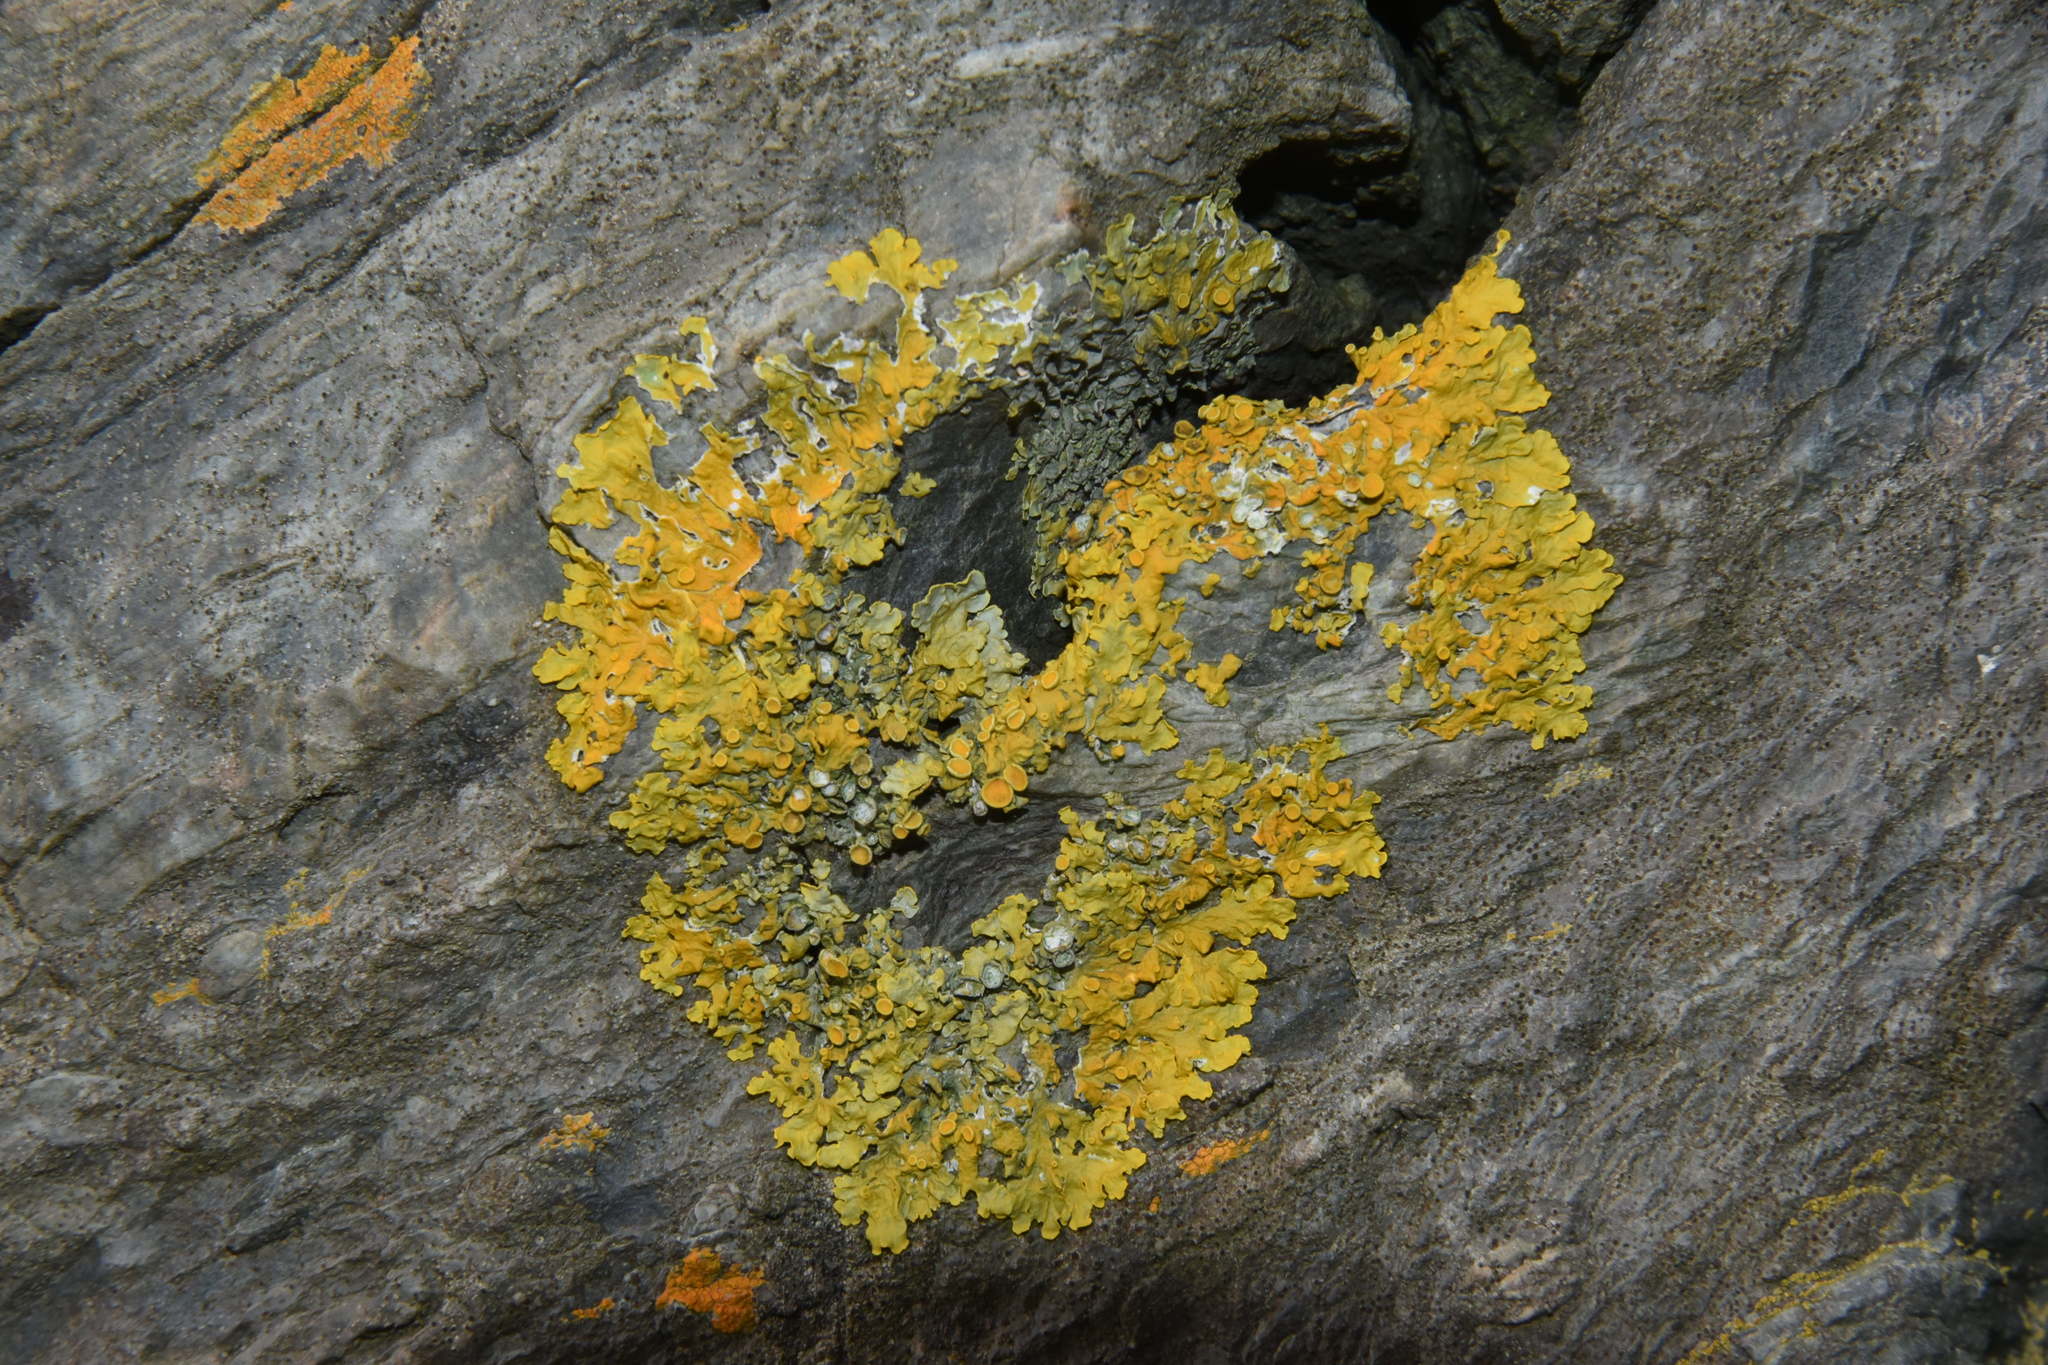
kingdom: Fungi
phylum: Ascomycota
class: Lecanoromycetes
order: Teloschistales
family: Teloschistaceae
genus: Xanthoria
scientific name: Xanthoria parietina
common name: Common orange lichen
